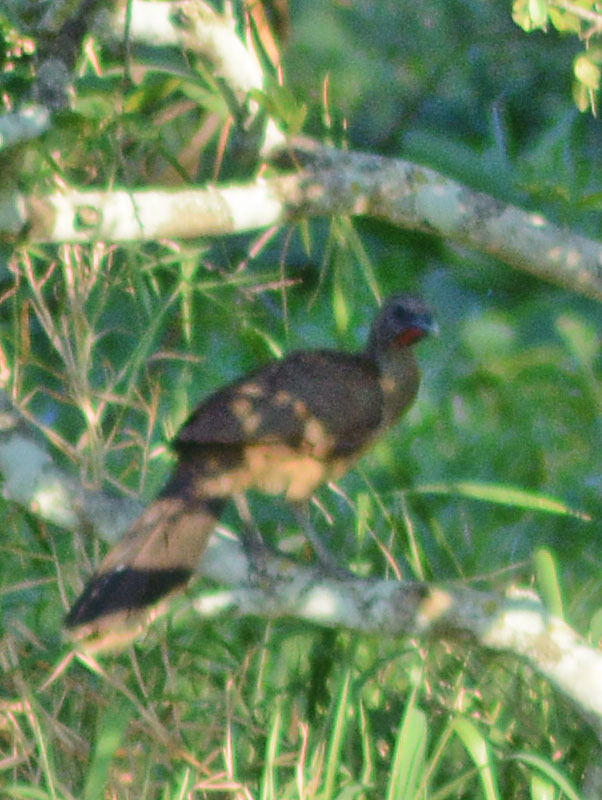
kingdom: Animalia
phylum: Chordata
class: Aves
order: Galliformes
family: Cracidae
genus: Ortalis
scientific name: Ortalis vetula
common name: Plain chachalaca
